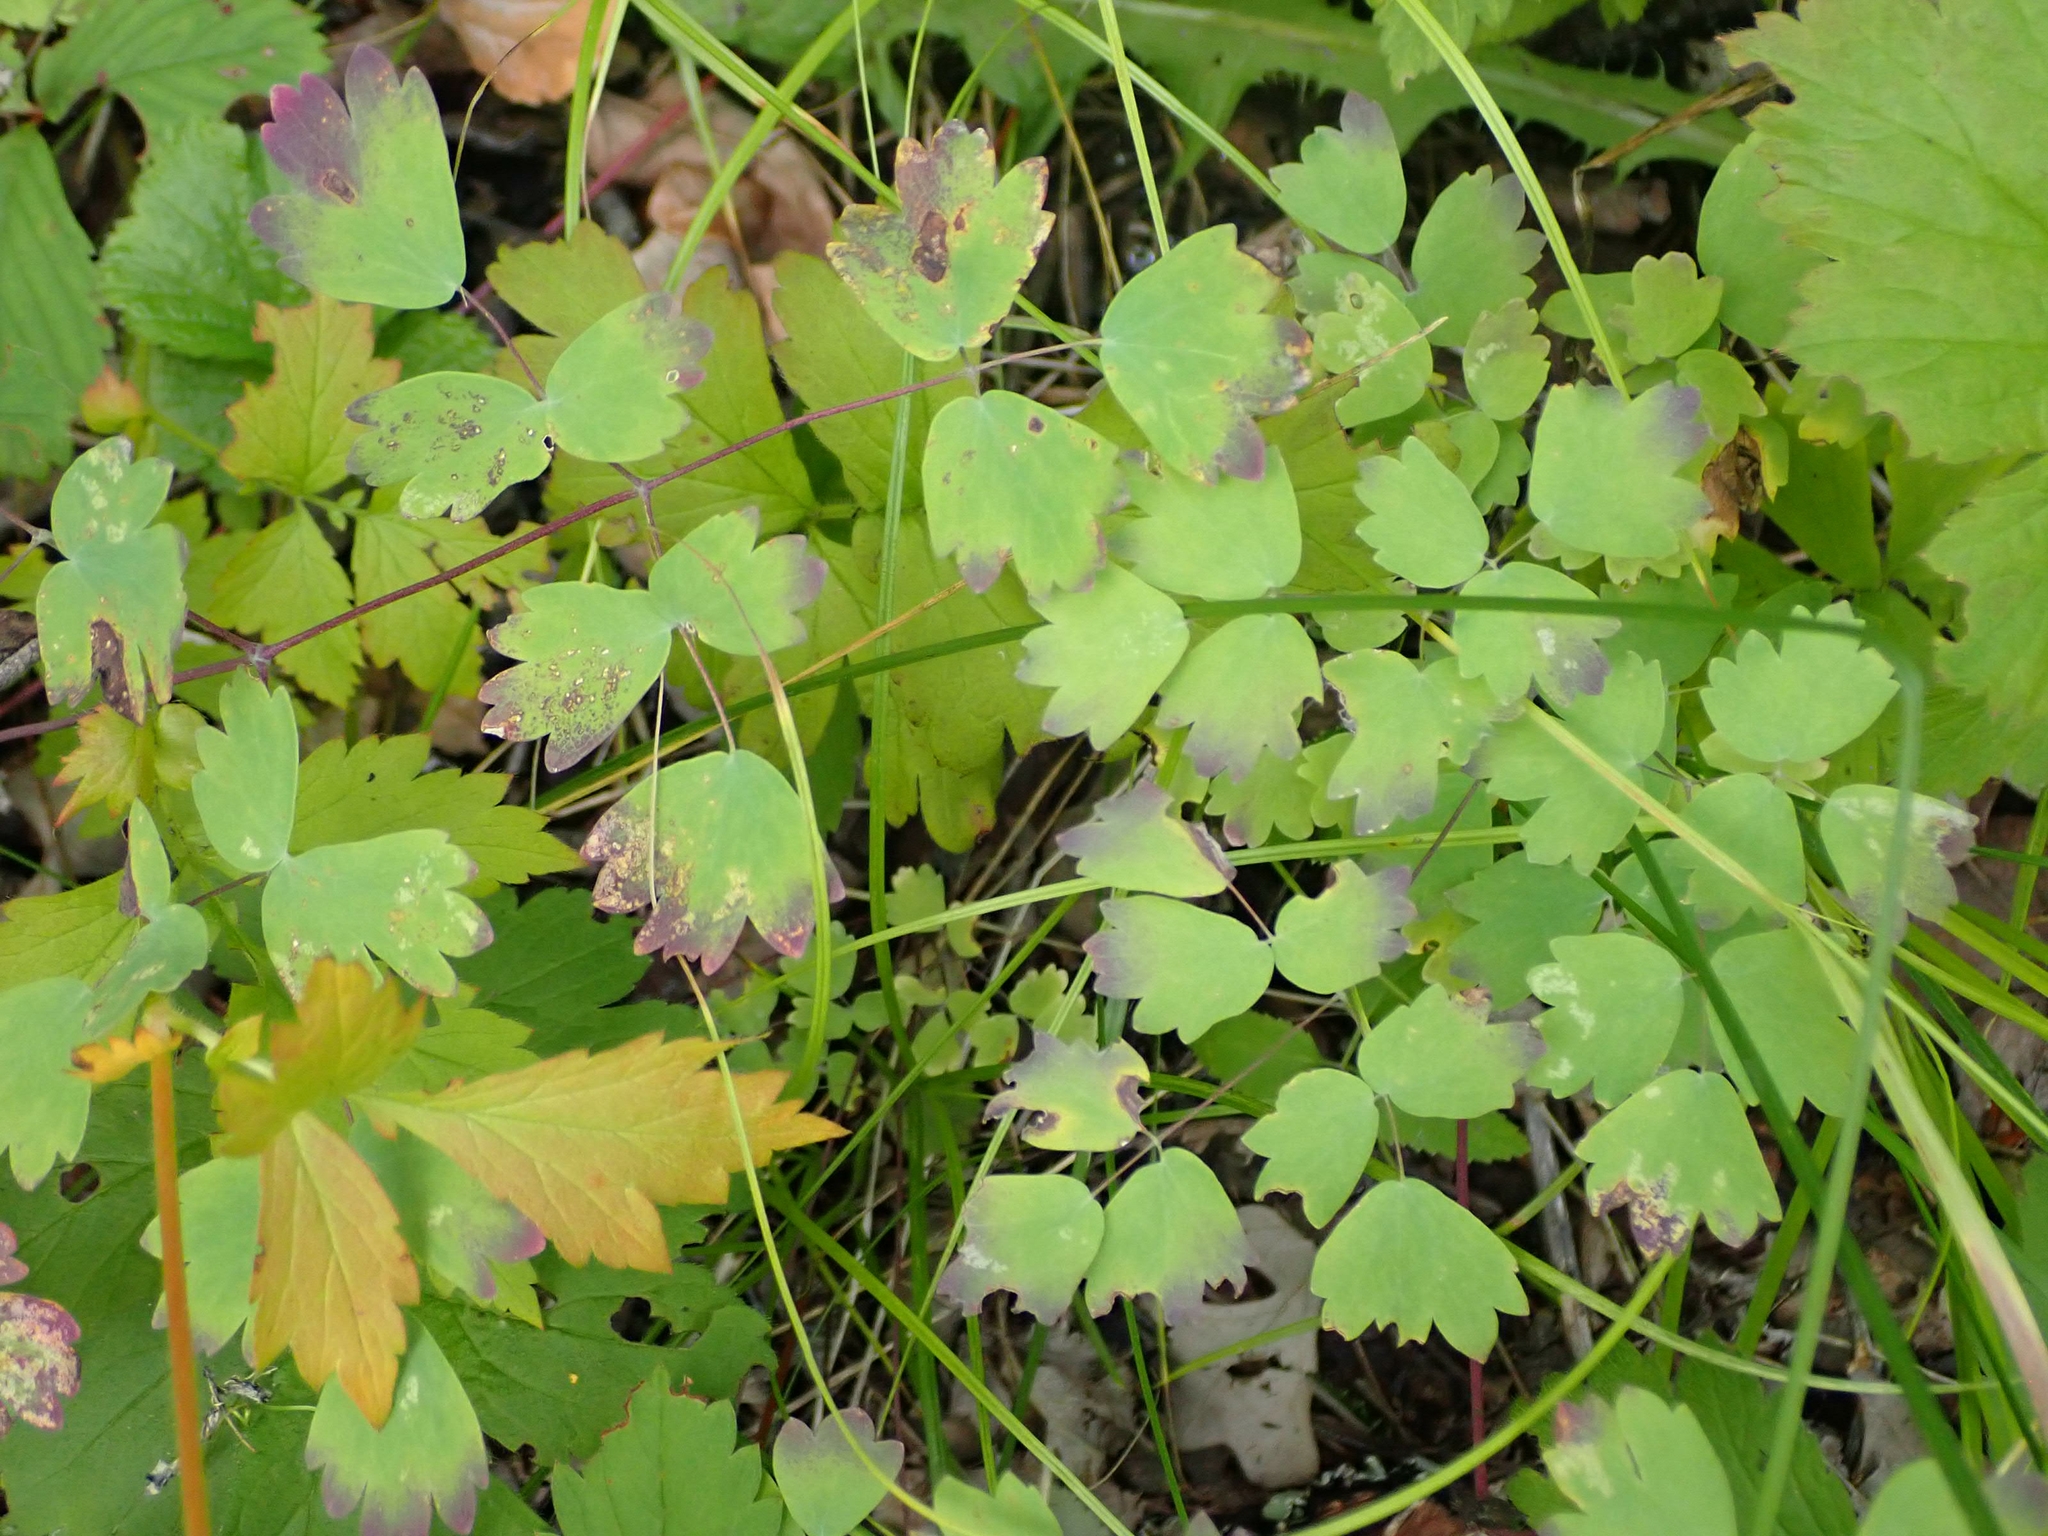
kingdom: Plantae
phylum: Tracheophyta
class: Magnoliopsida
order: Ranunculales
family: Ranunculaceae
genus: Thalictrum
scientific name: Thalictrum venulosum
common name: Early meadow-rue
